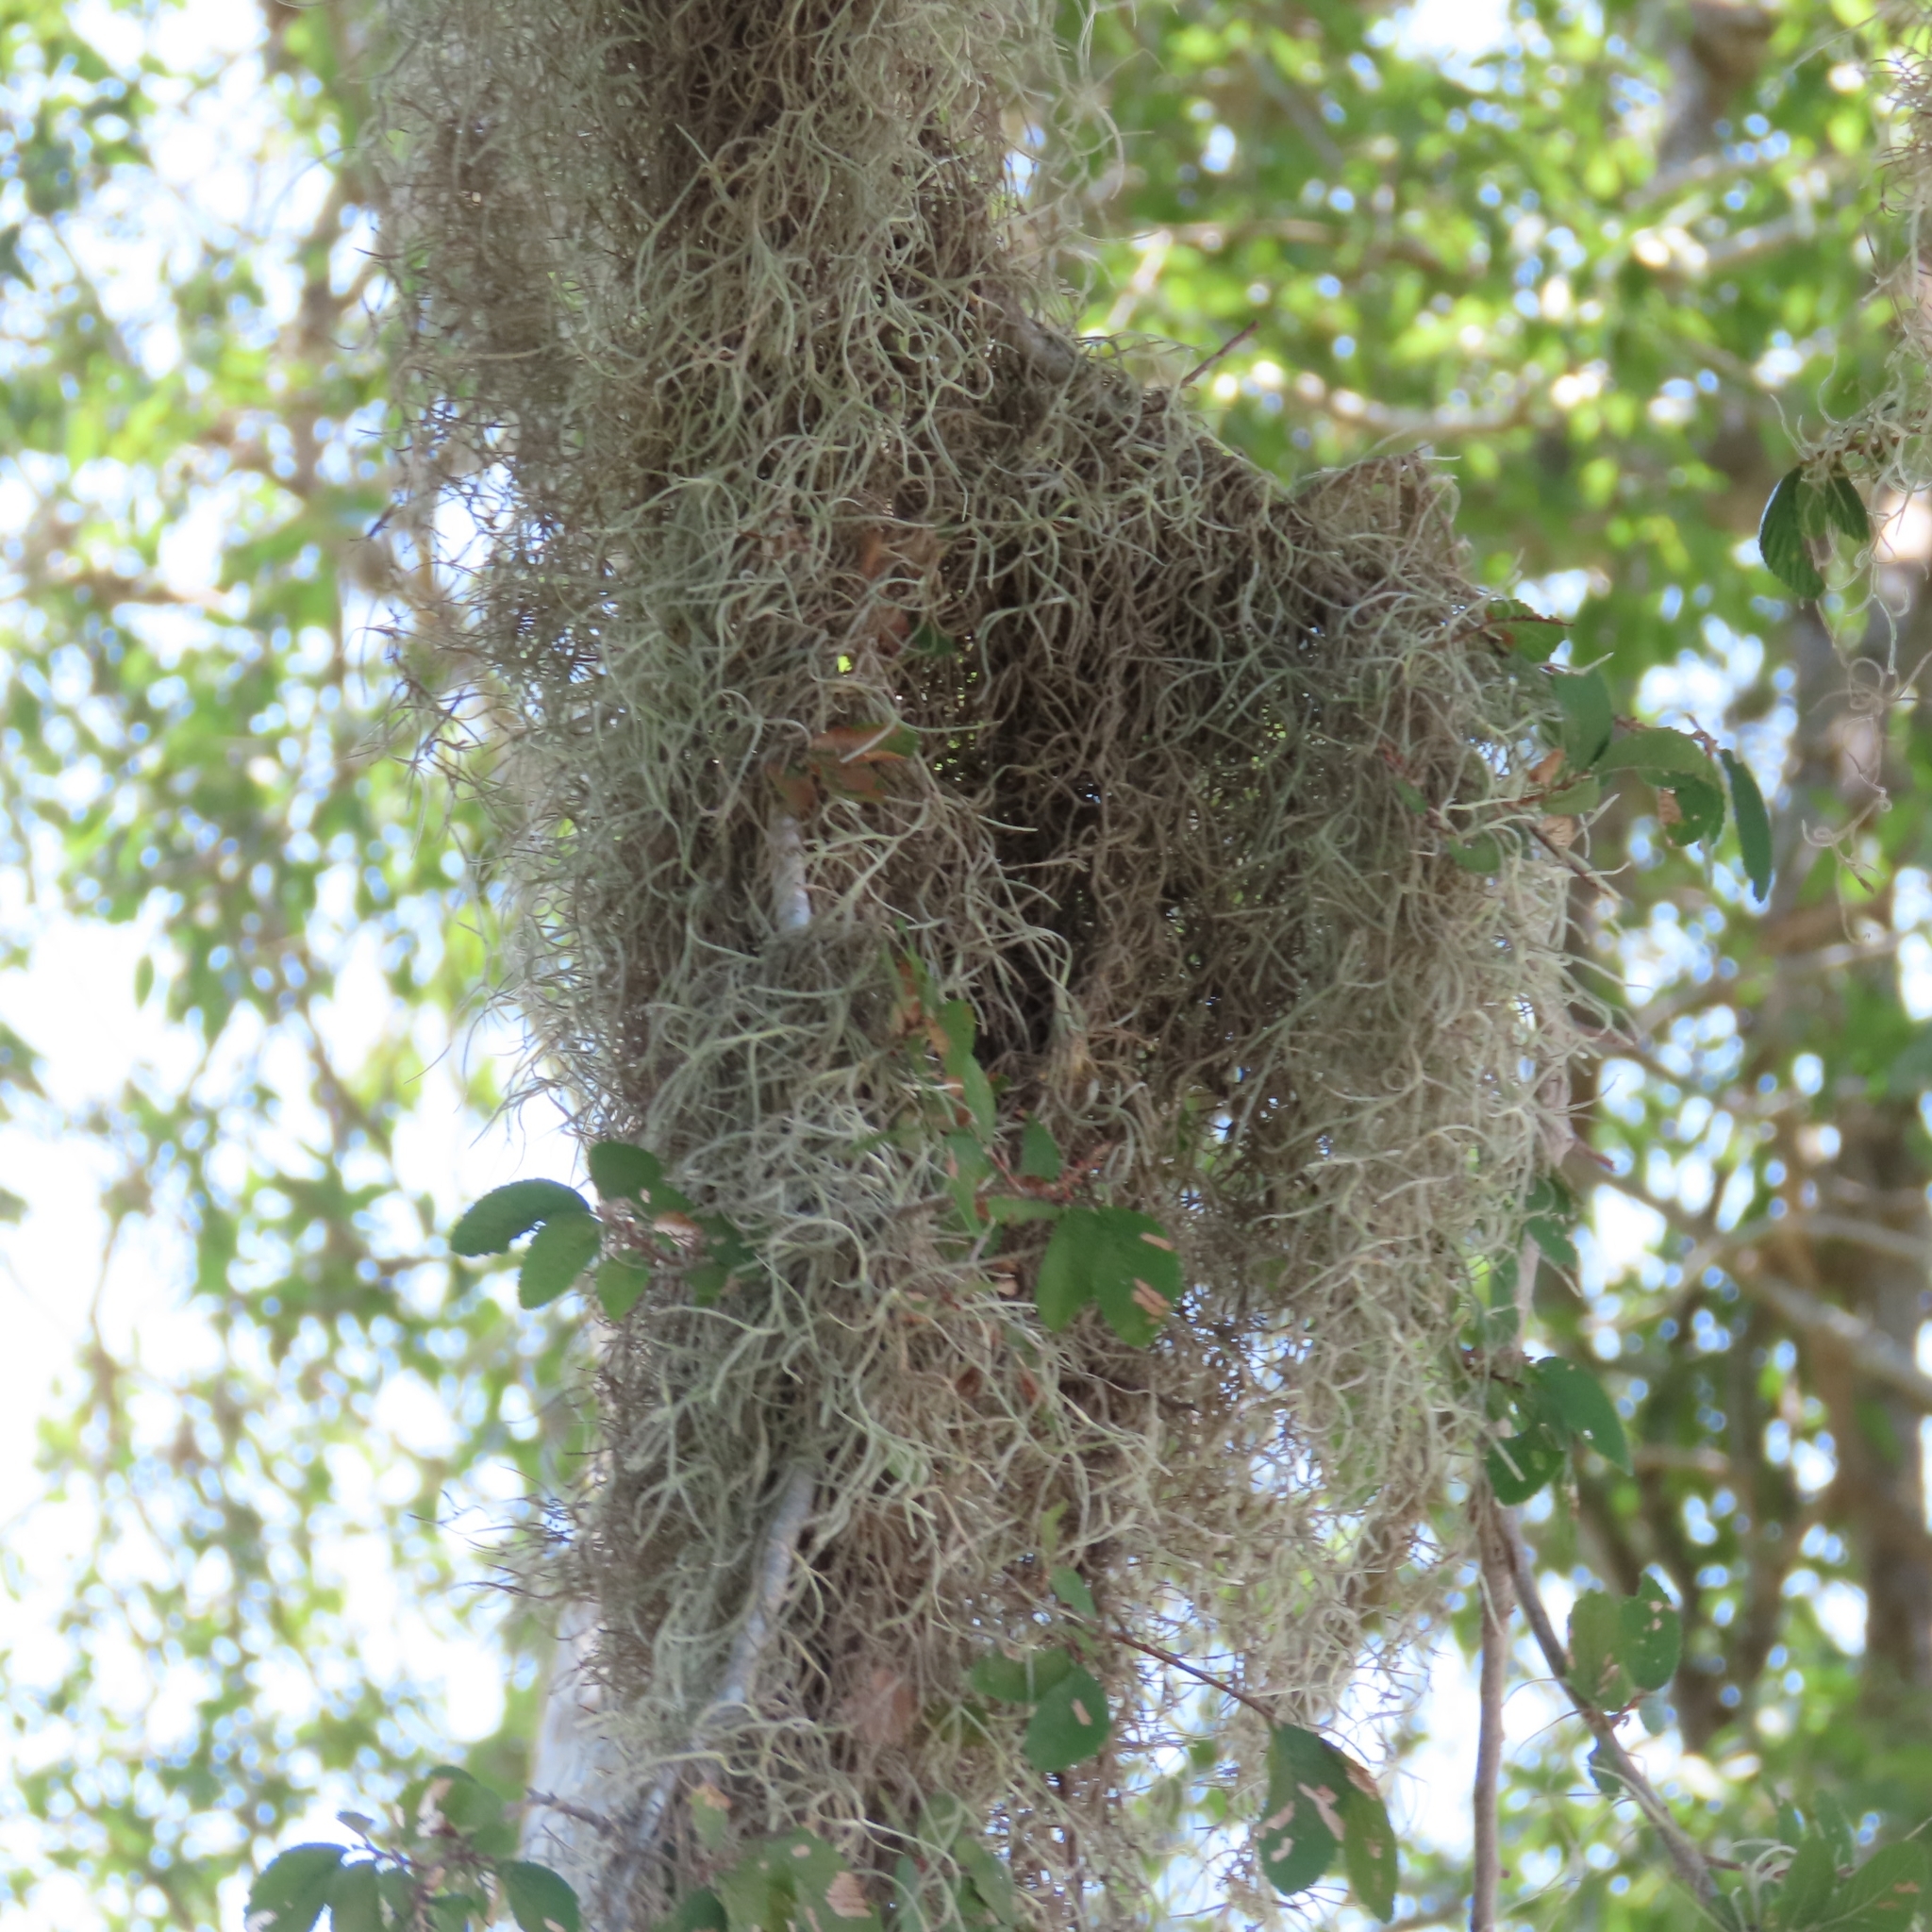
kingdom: Plantae
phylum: Tracheophyta
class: Liliopsida
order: Poales
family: Bromeliaceae
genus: Tillandsia
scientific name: Tillandsia usneoides
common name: Spanish moss
